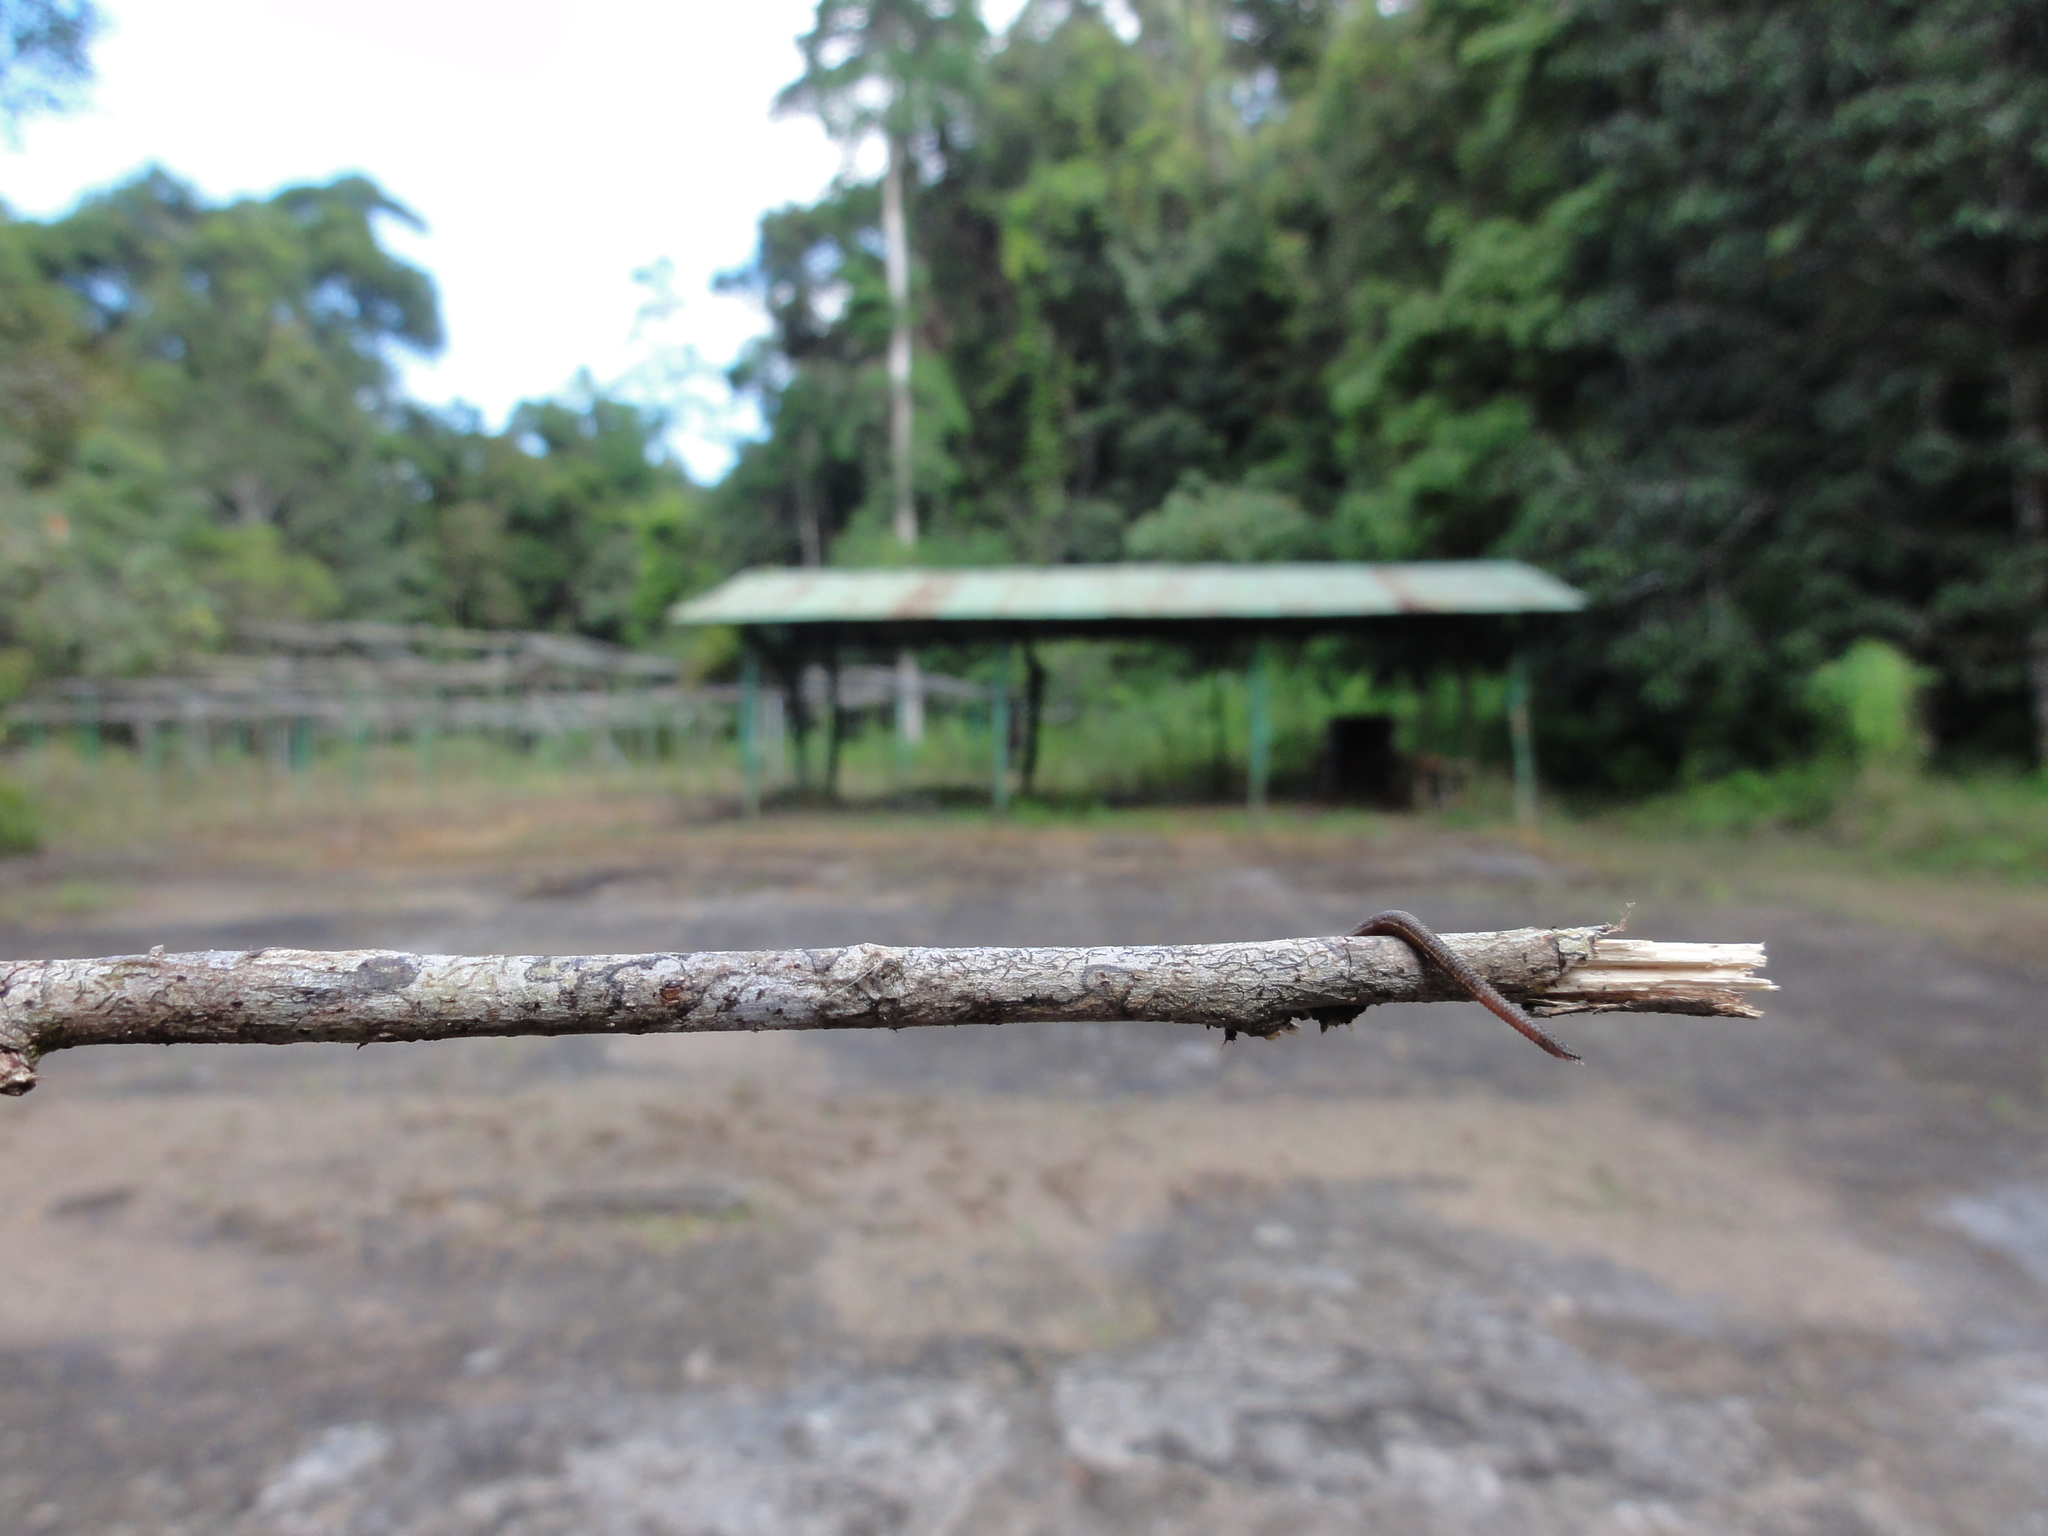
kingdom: Animalia
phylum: Annelida
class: Clitellata
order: Arhynchobdellida
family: Haemadipsidae
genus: Haemadipsa
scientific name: Haemadipsa zeylanica
